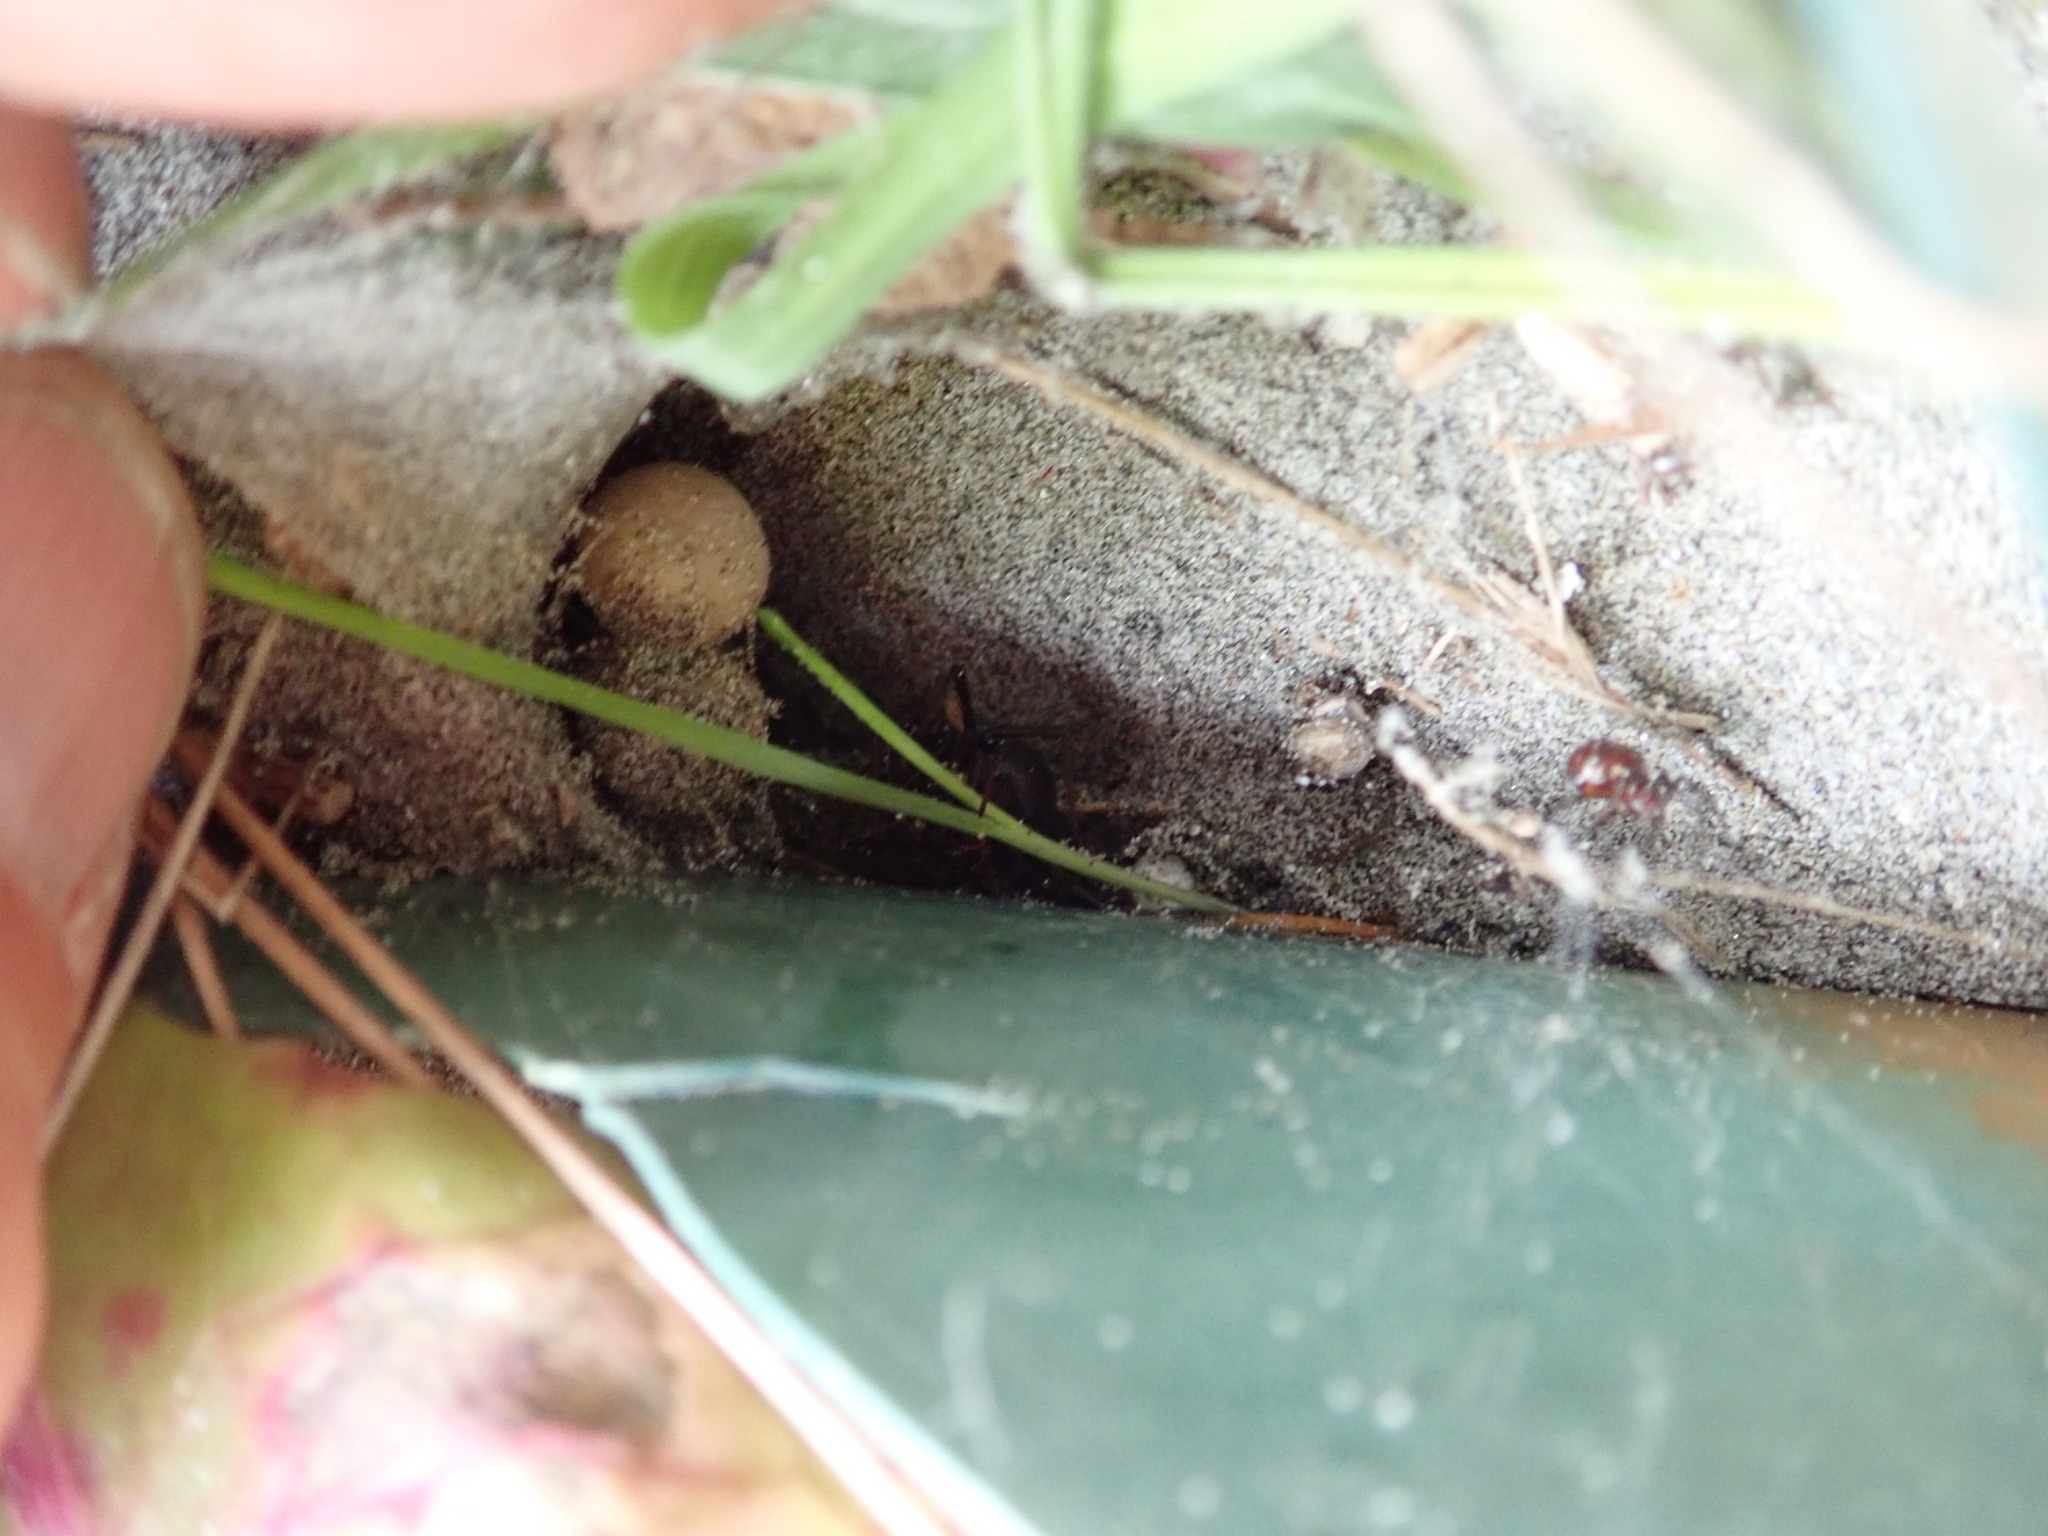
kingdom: Animalia
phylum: Arthropoda
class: Arachnida
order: Araneae
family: Theridiidae
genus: Latrodectus
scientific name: Latrodectus katipo
